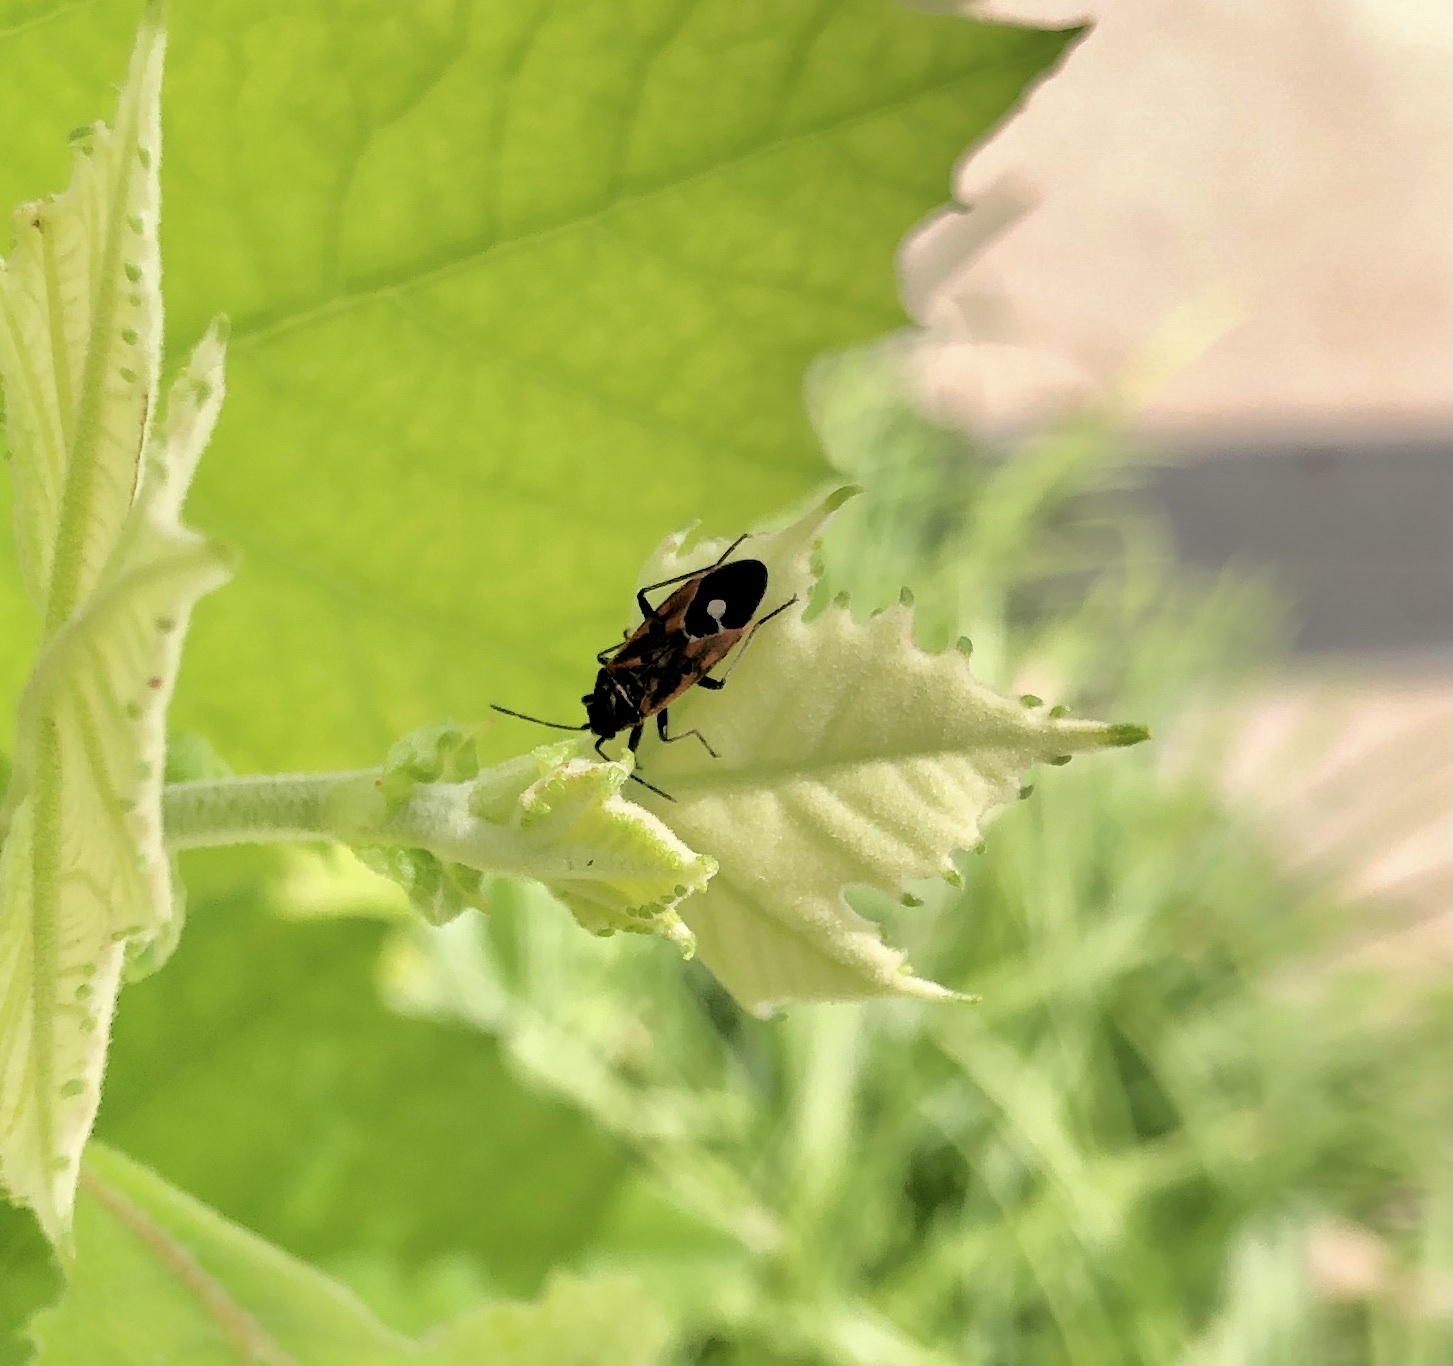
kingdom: Animalia
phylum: Arthropoda
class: Insecta
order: Hemiptera
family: Lygaeidae
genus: Lygaeus
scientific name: Lygaeus hanseni
